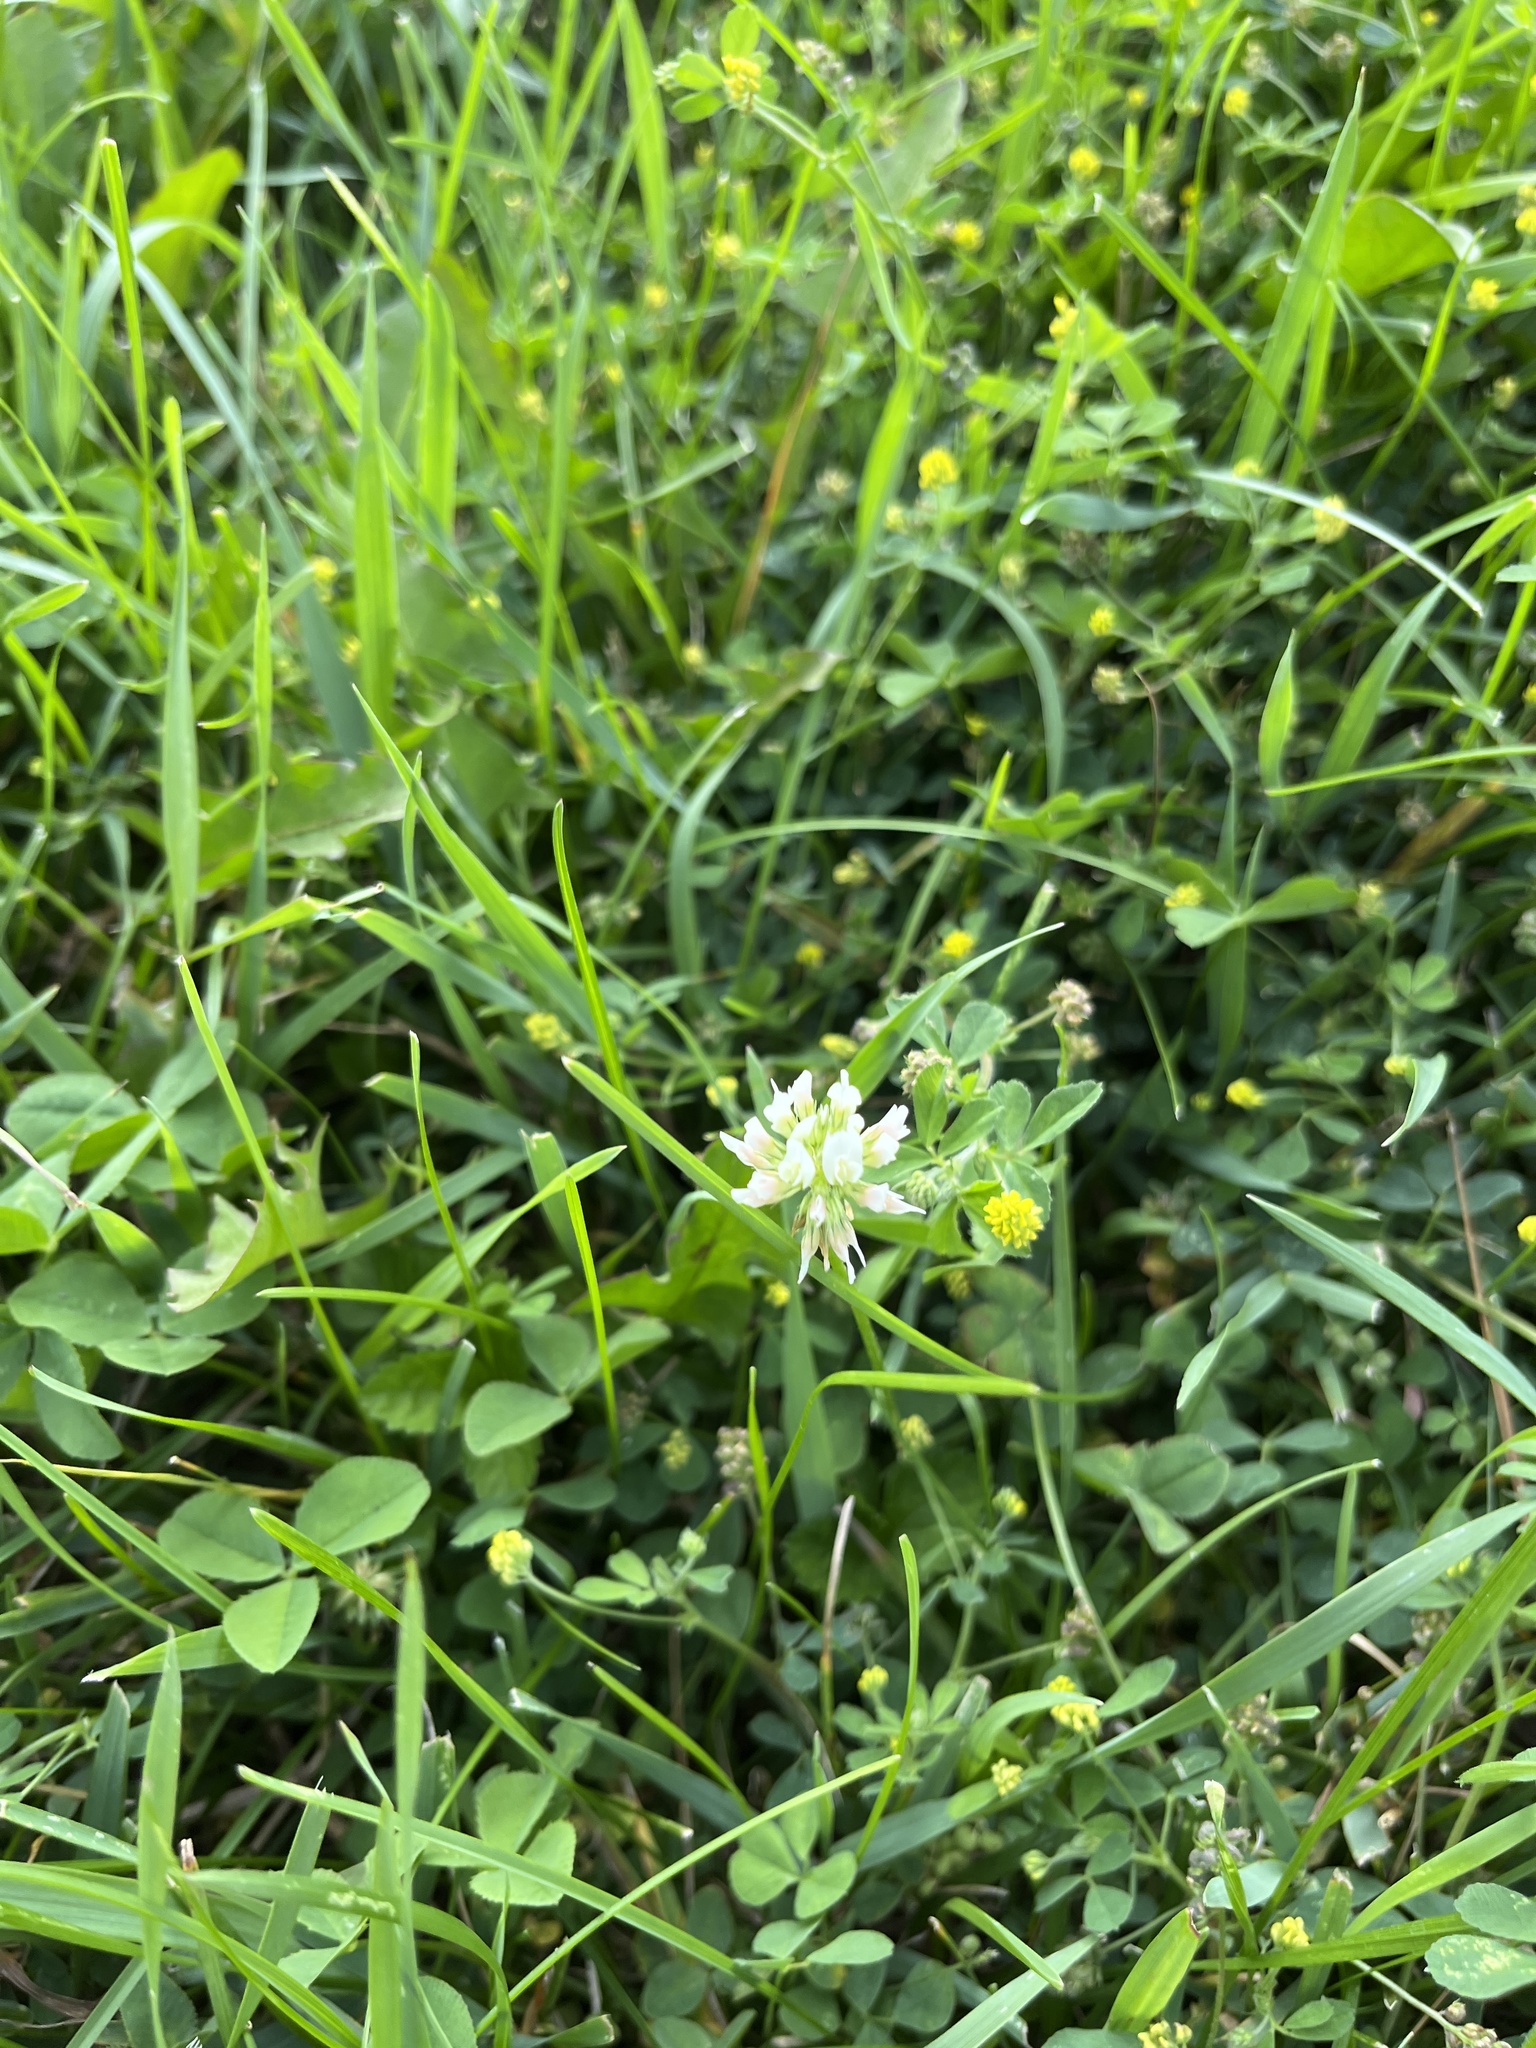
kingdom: Plantae
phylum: Tracheophyta
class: Magnoliopsida
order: Fabales
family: Fabaceae
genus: Trifolium
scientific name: Trifolium repens
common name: White clover
